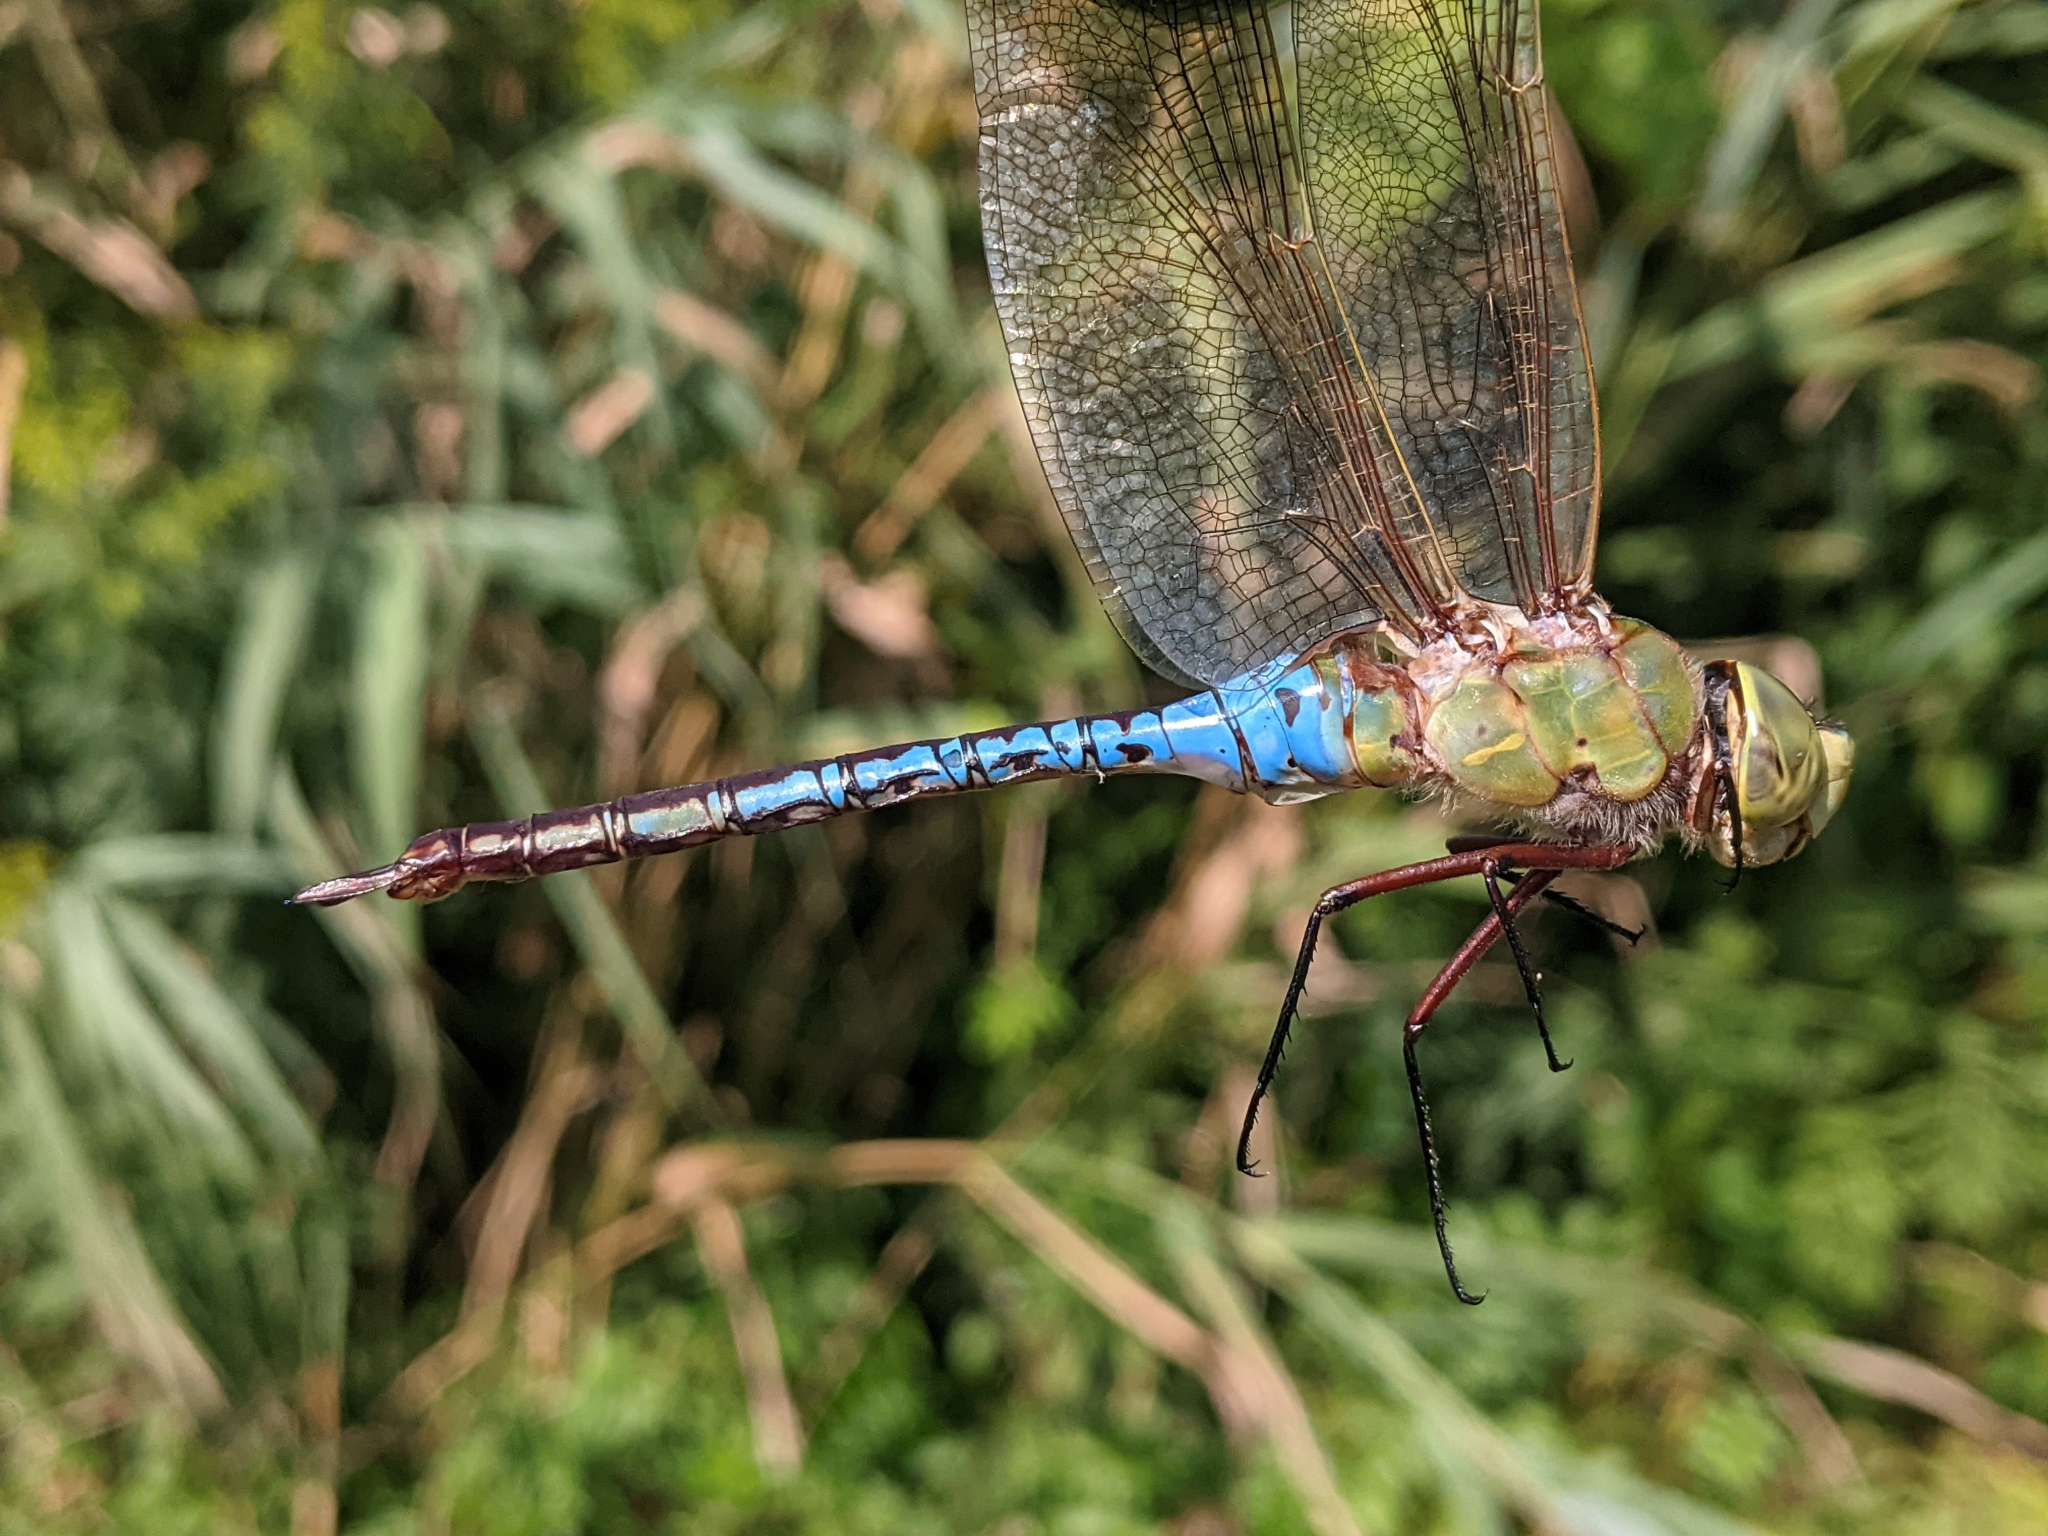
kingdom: Animalia
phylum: Arthropoda
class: Insecta
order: Odonata
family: Aeshnidae
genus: Anax
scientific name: Anax junius
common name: Common green darner
